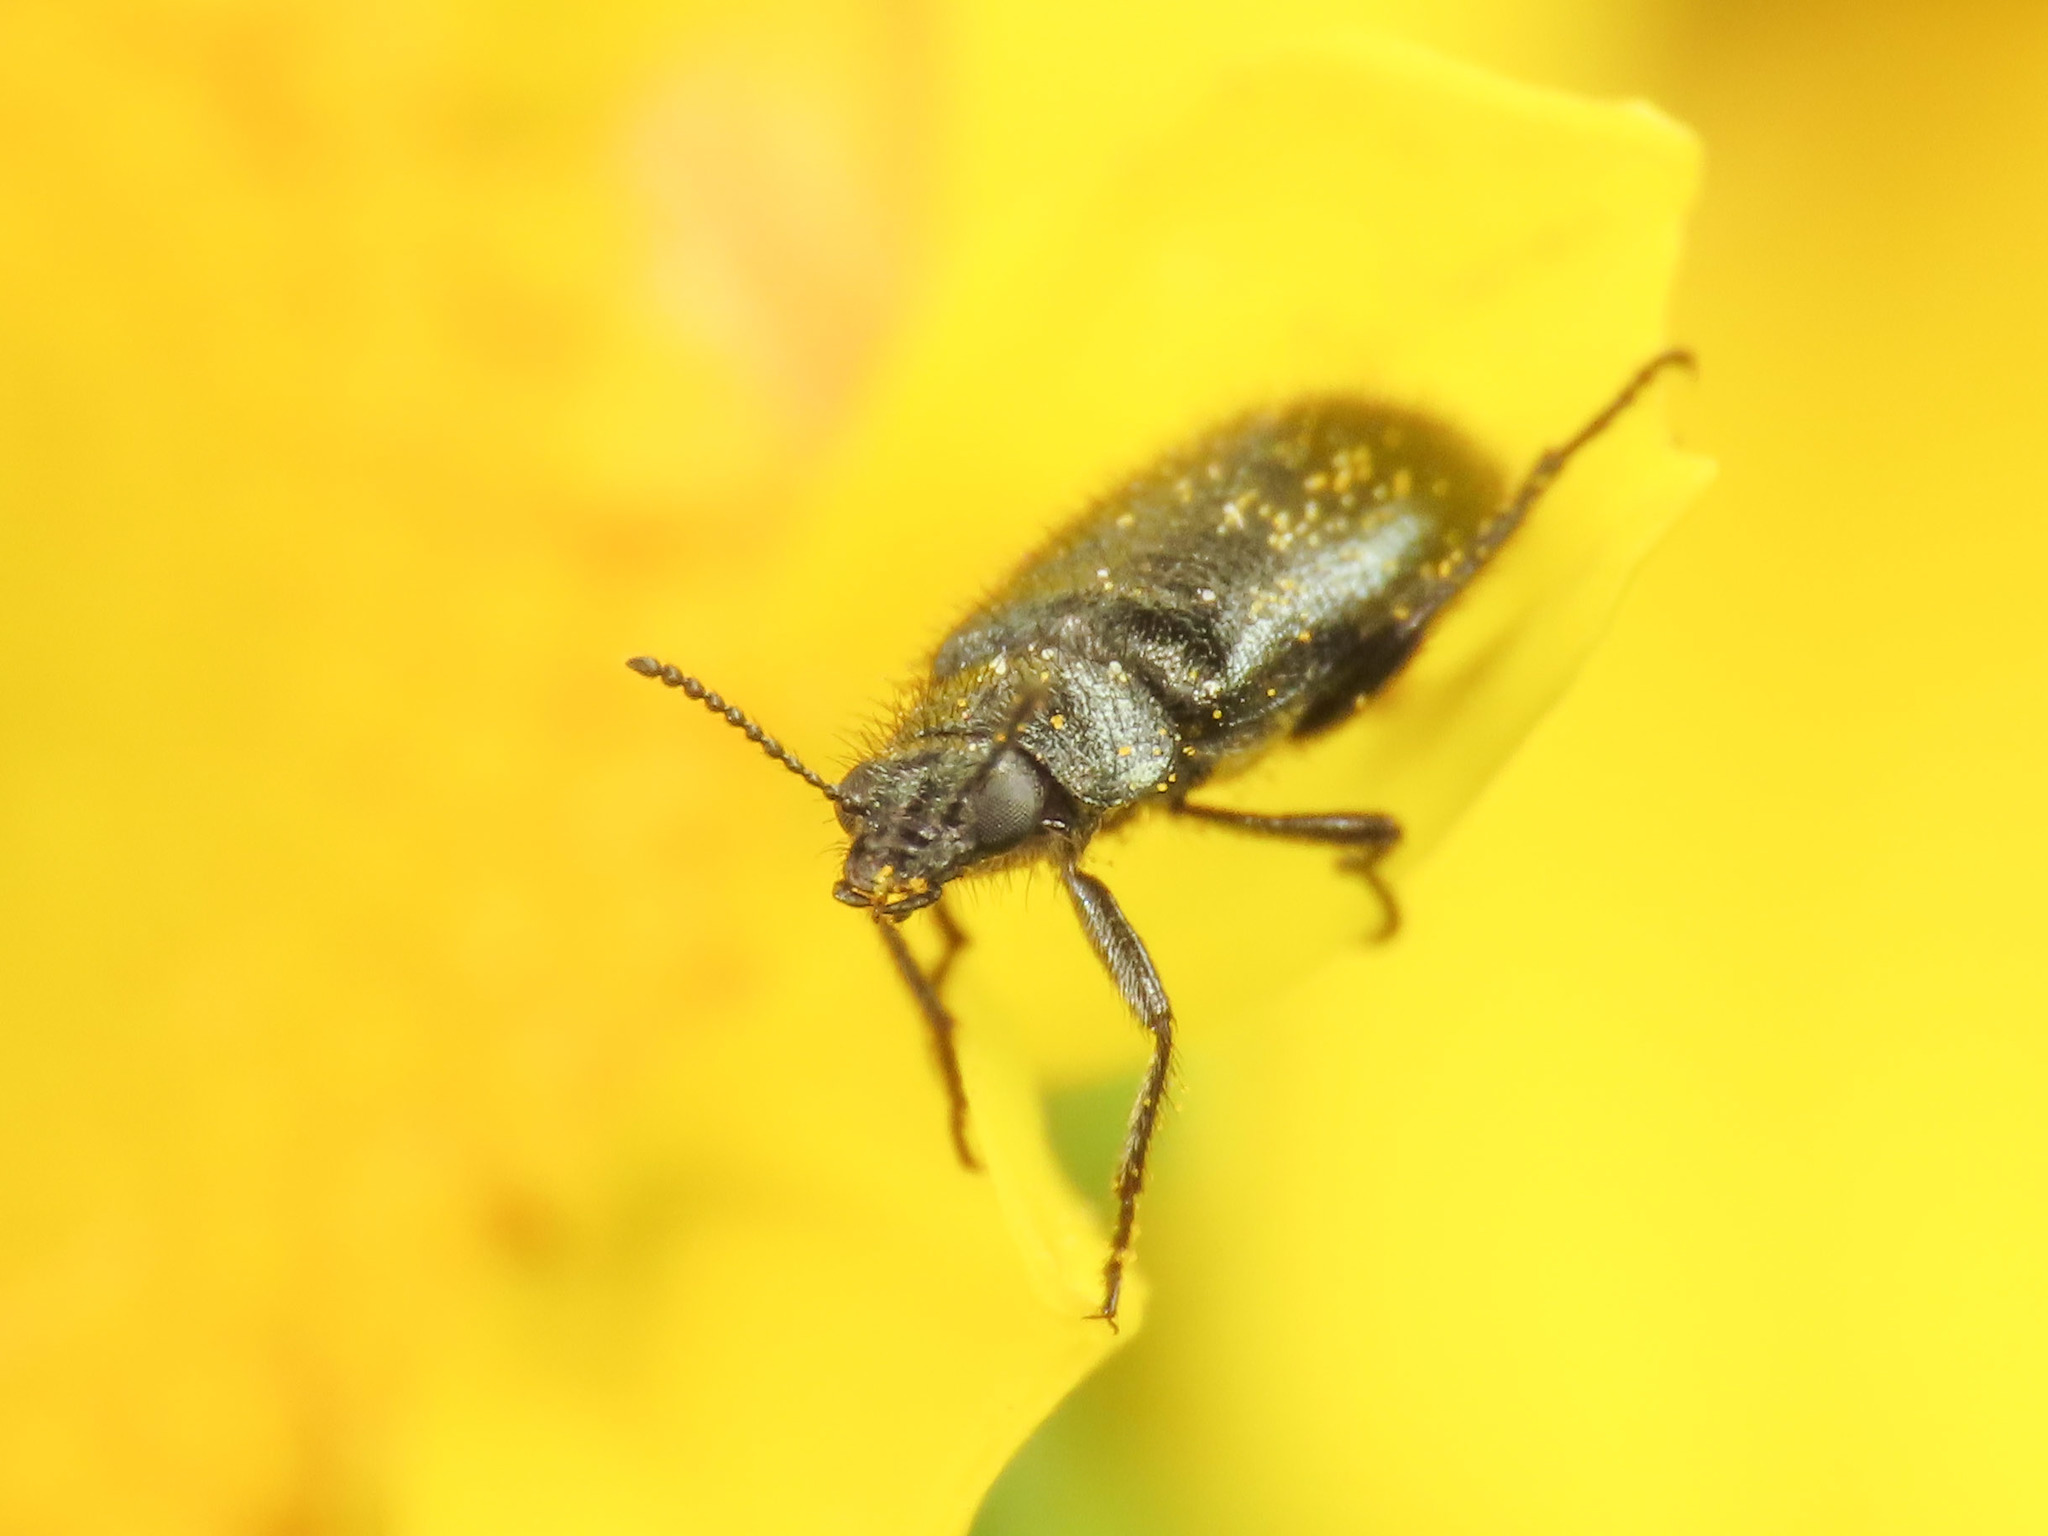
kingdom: Animalia
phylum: Arthropoda
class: Insecta
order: Coleoptera
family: Melyridae
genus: Dasytes
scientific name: Dasytes coerulescens
